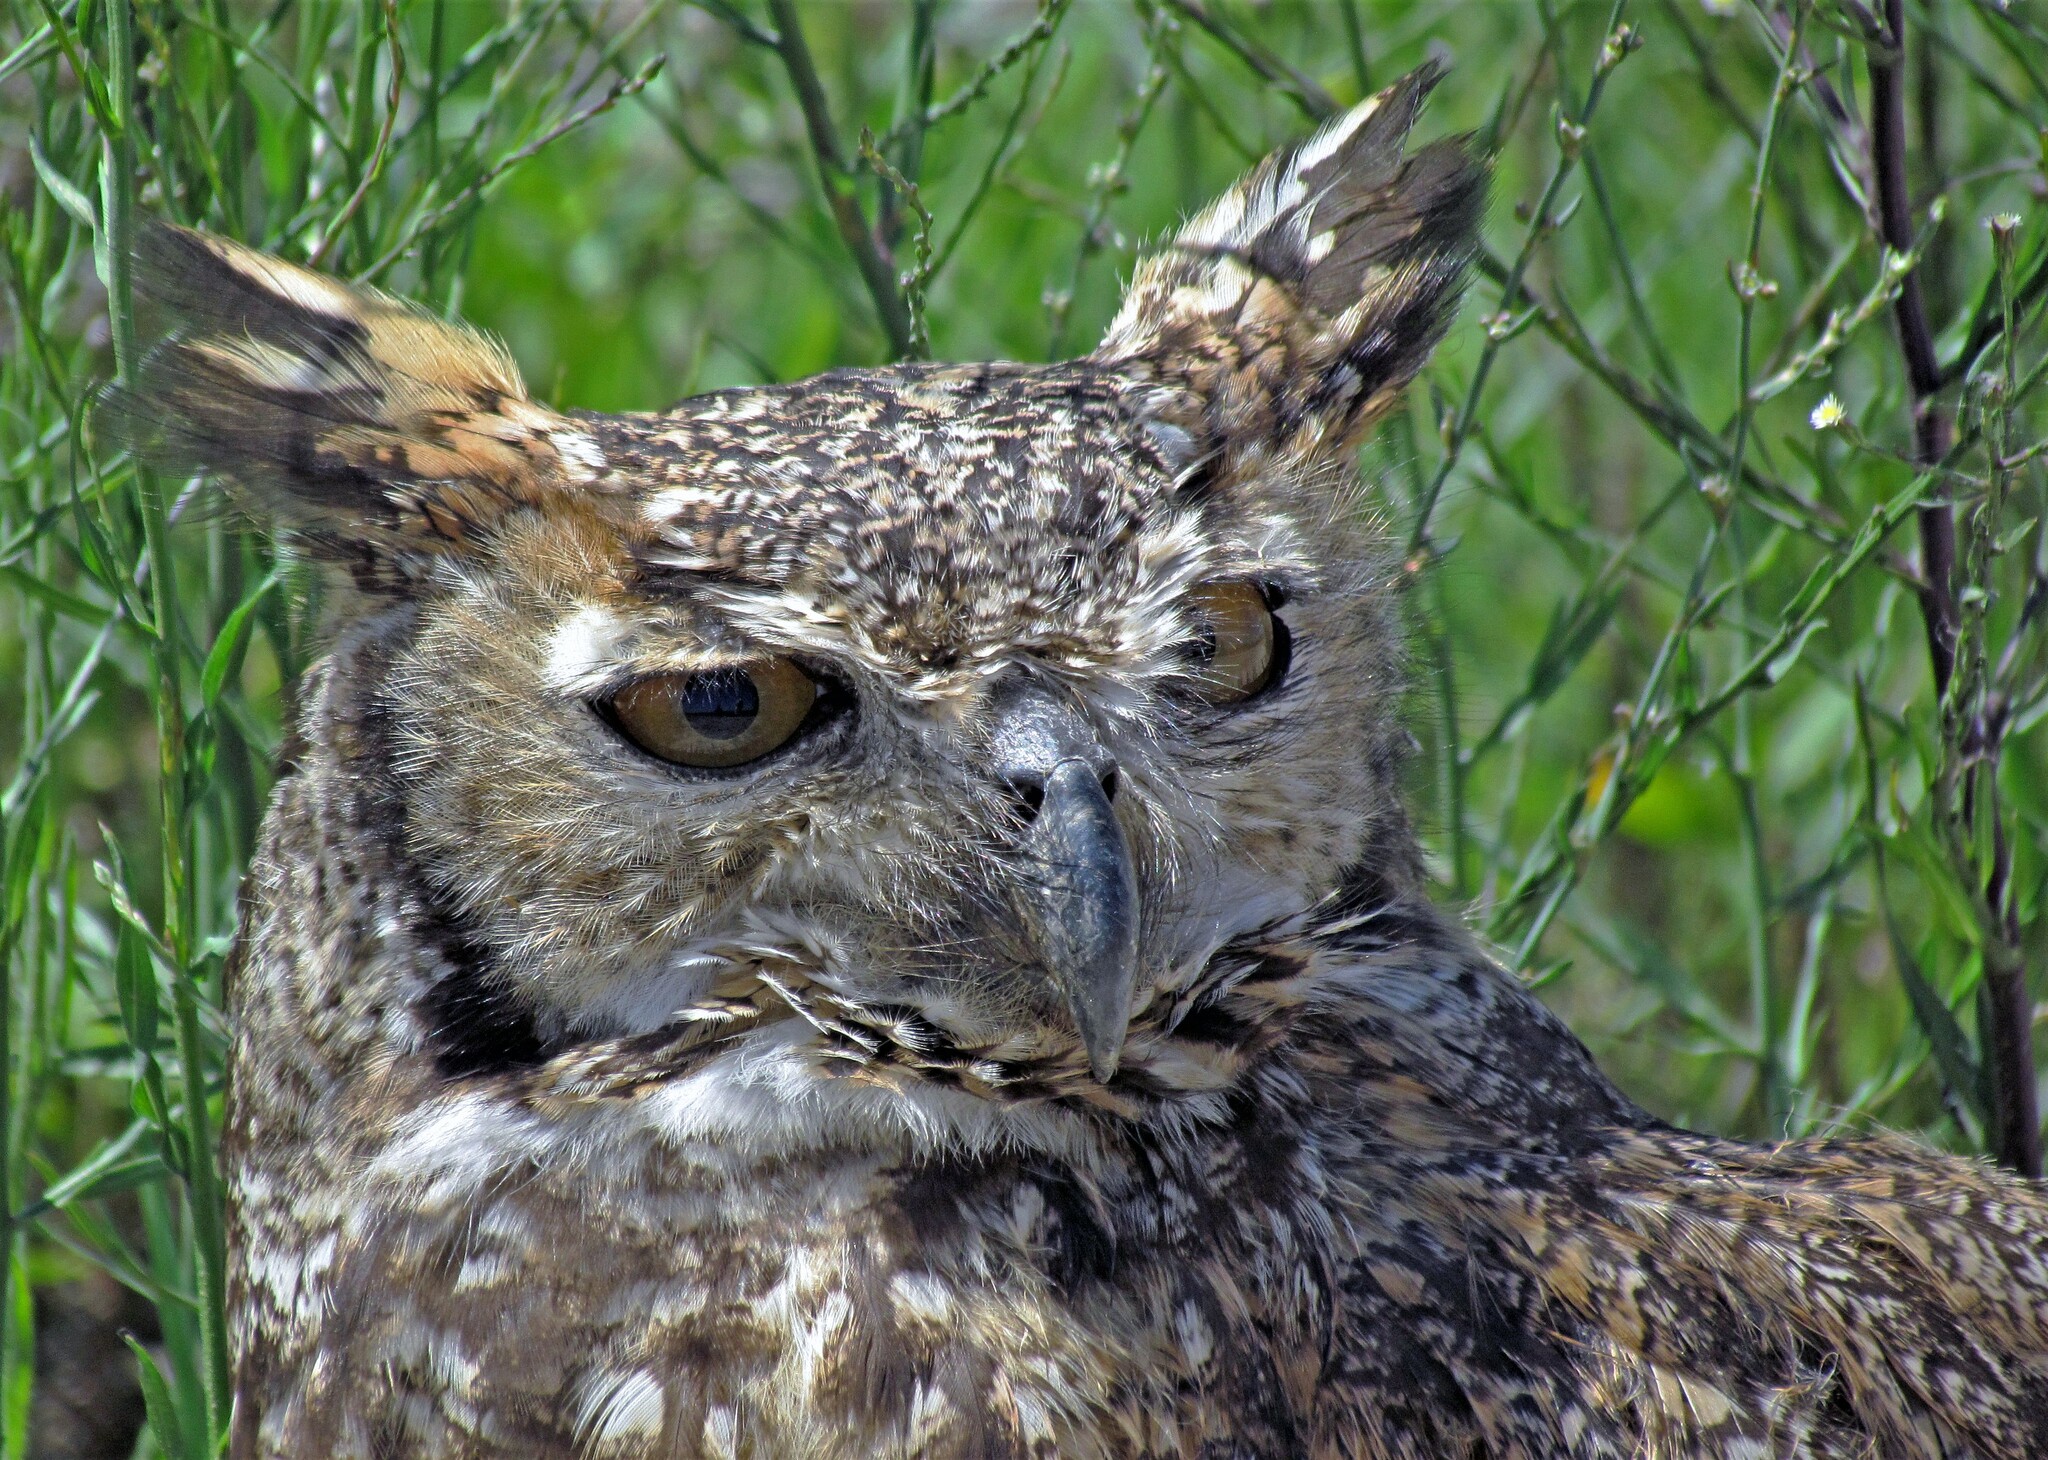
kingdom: Animalia
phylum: Chordata
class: Aves
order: Strigiformes
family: Strigidae
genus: Bubo
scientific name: Bubo virginianus
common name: Great horned owl
